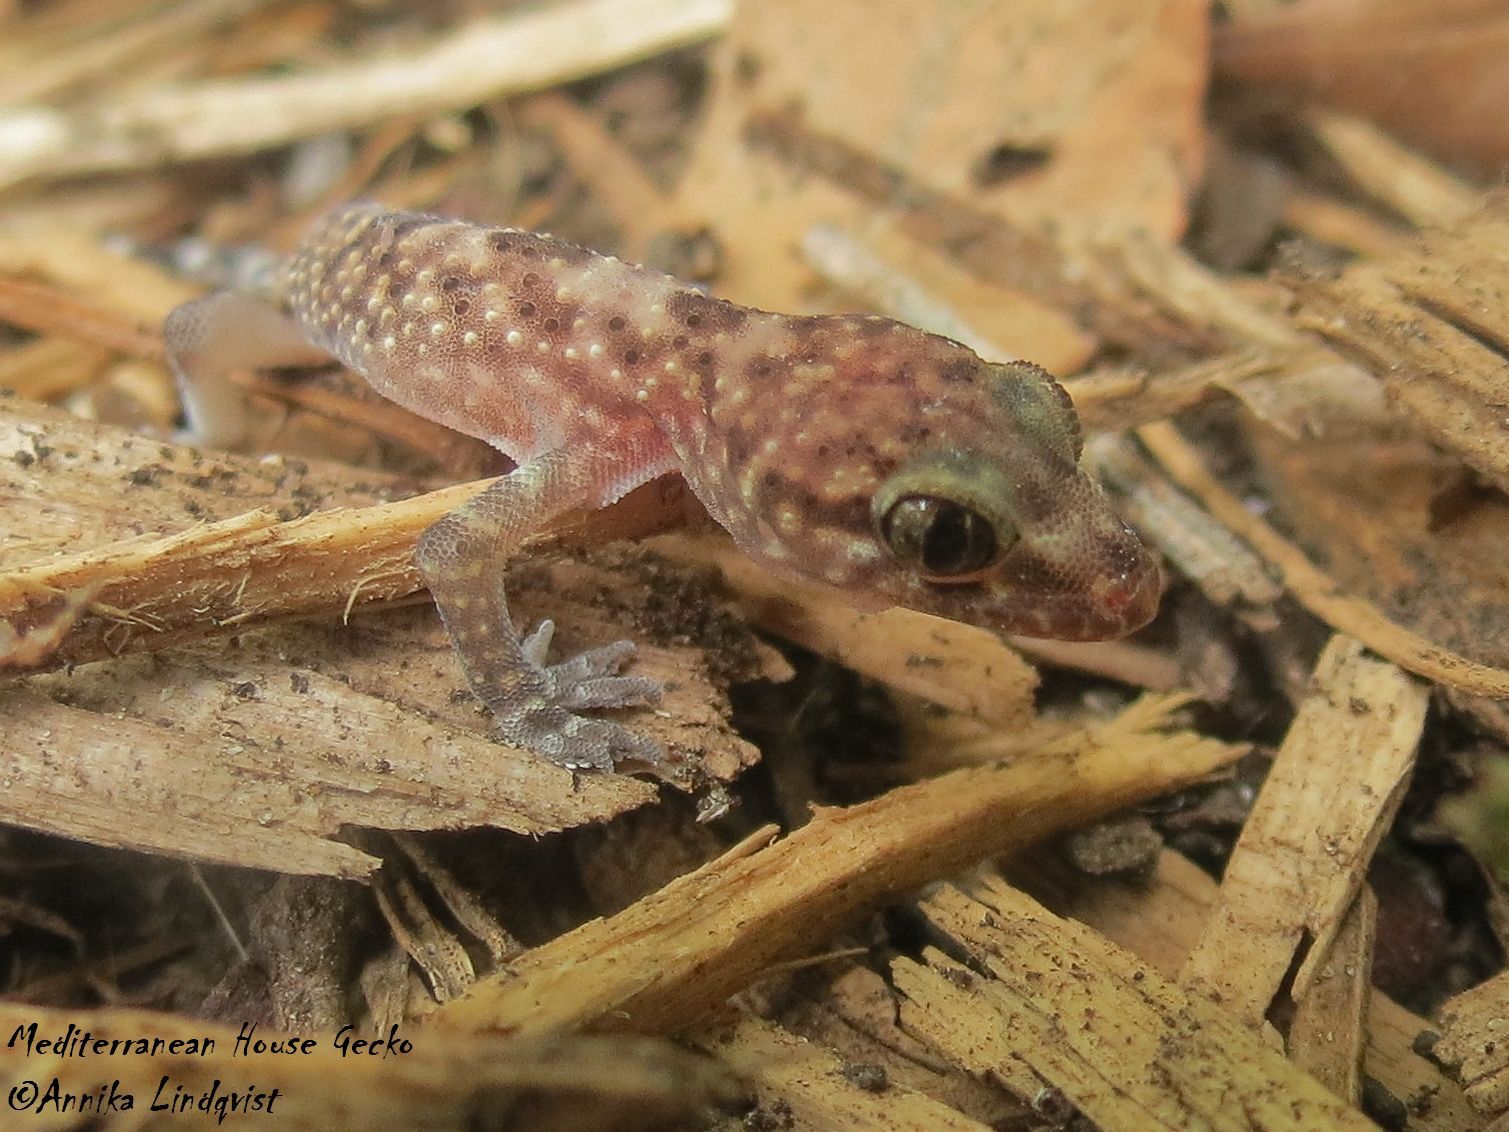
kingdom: Animalia
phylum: Chordata
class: Squamata
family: Gekkonidae
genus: Hemidactylus
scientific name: Hemidactylus turcicus
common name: Turkish gecko
